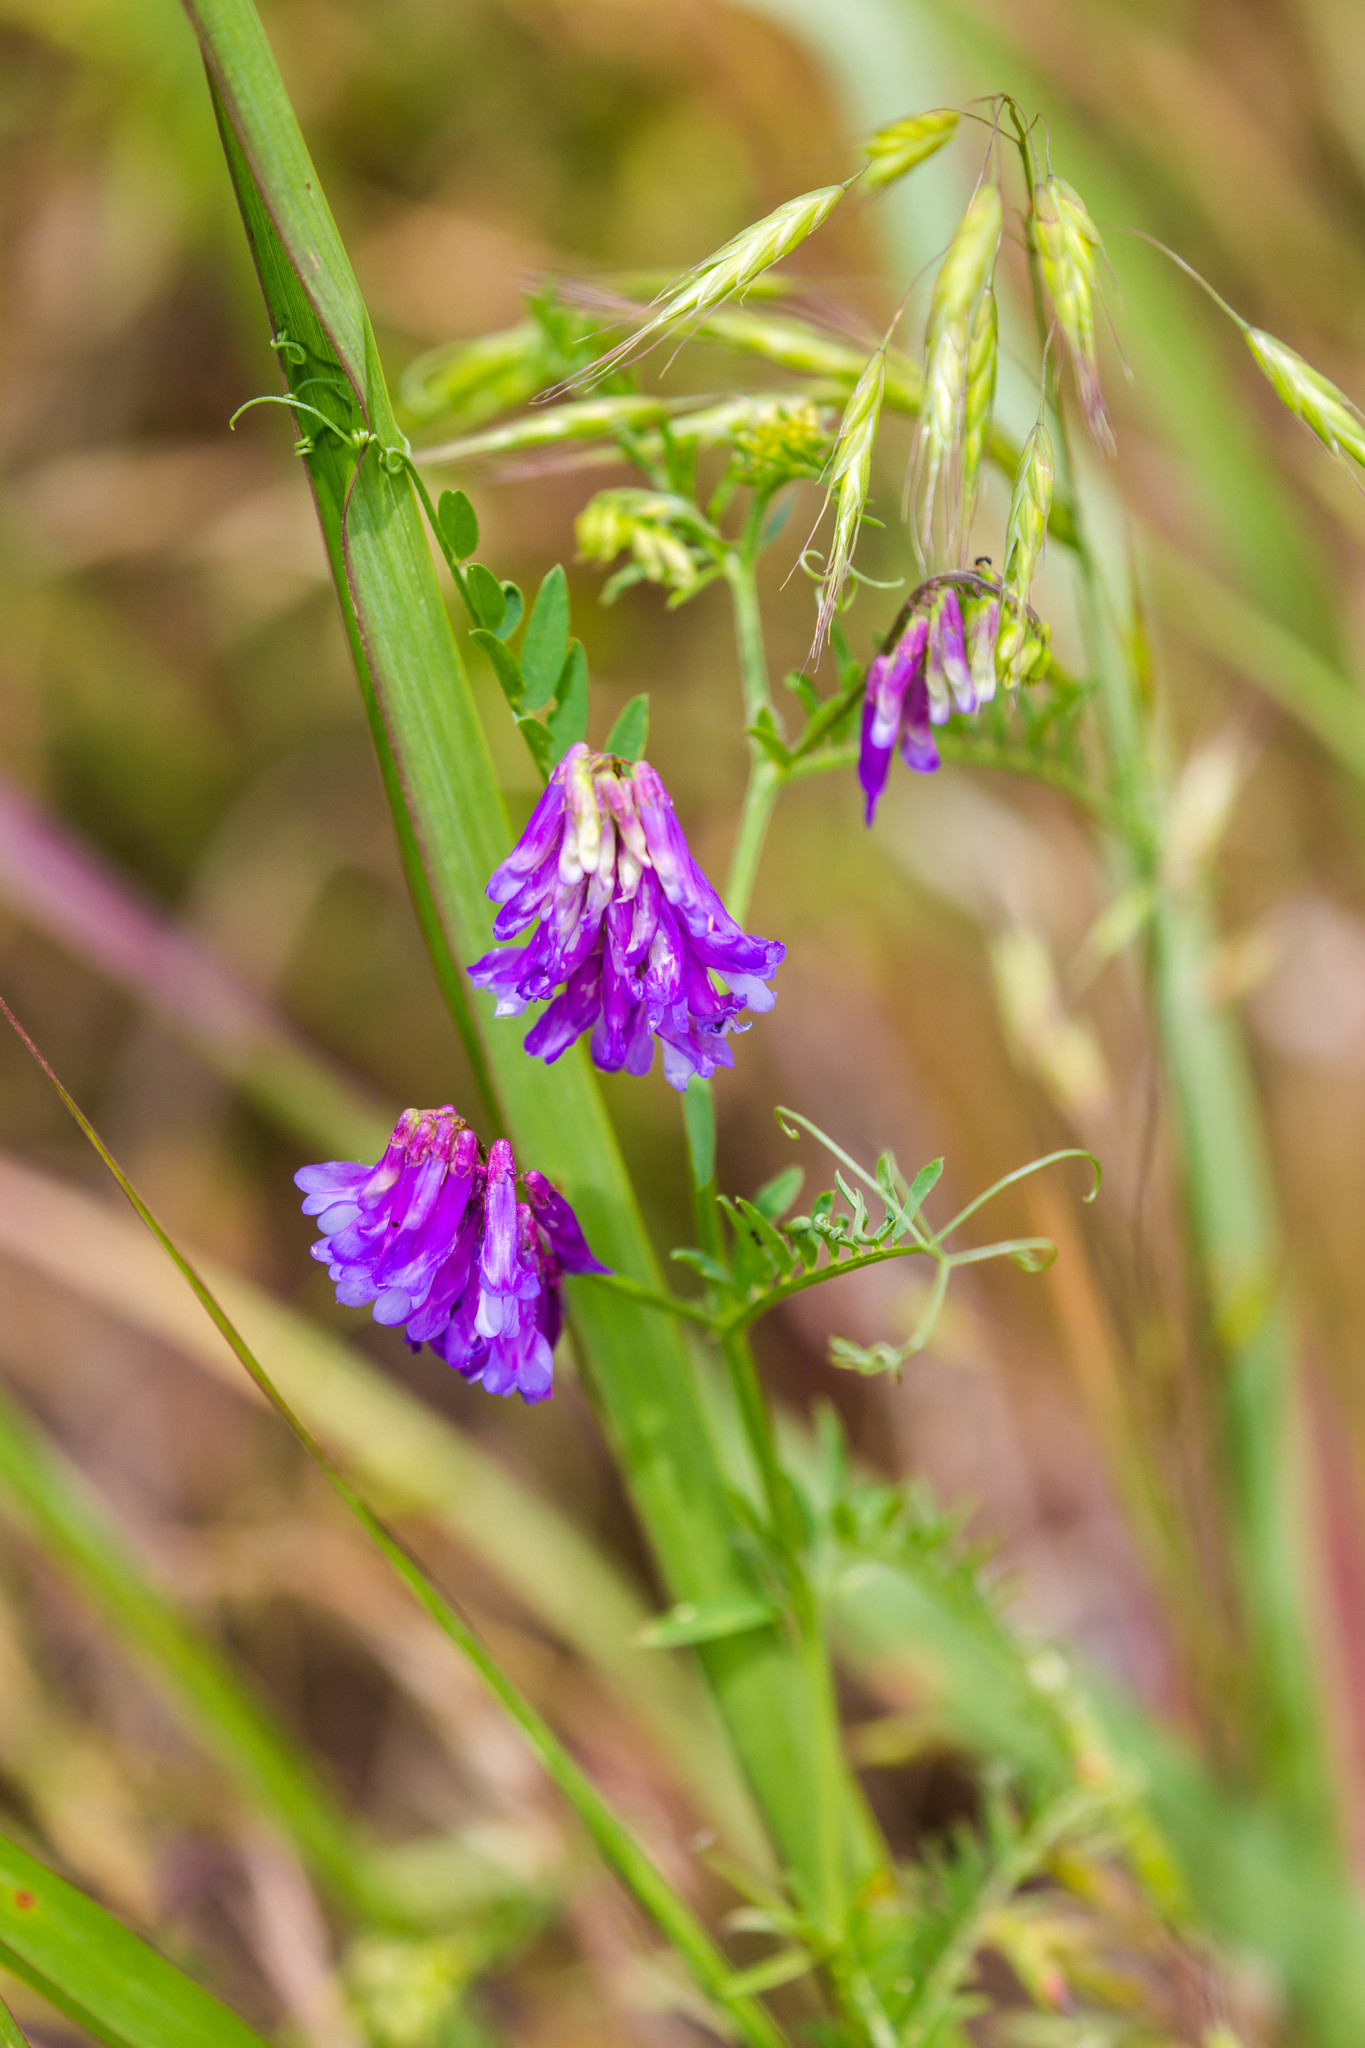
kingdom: Plantae
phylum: Tracheophyta
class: Magnoliopsida
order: Fabales
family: Fabaceae
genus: Vicia
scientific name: Vicia villosa
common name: Fodder vetch
